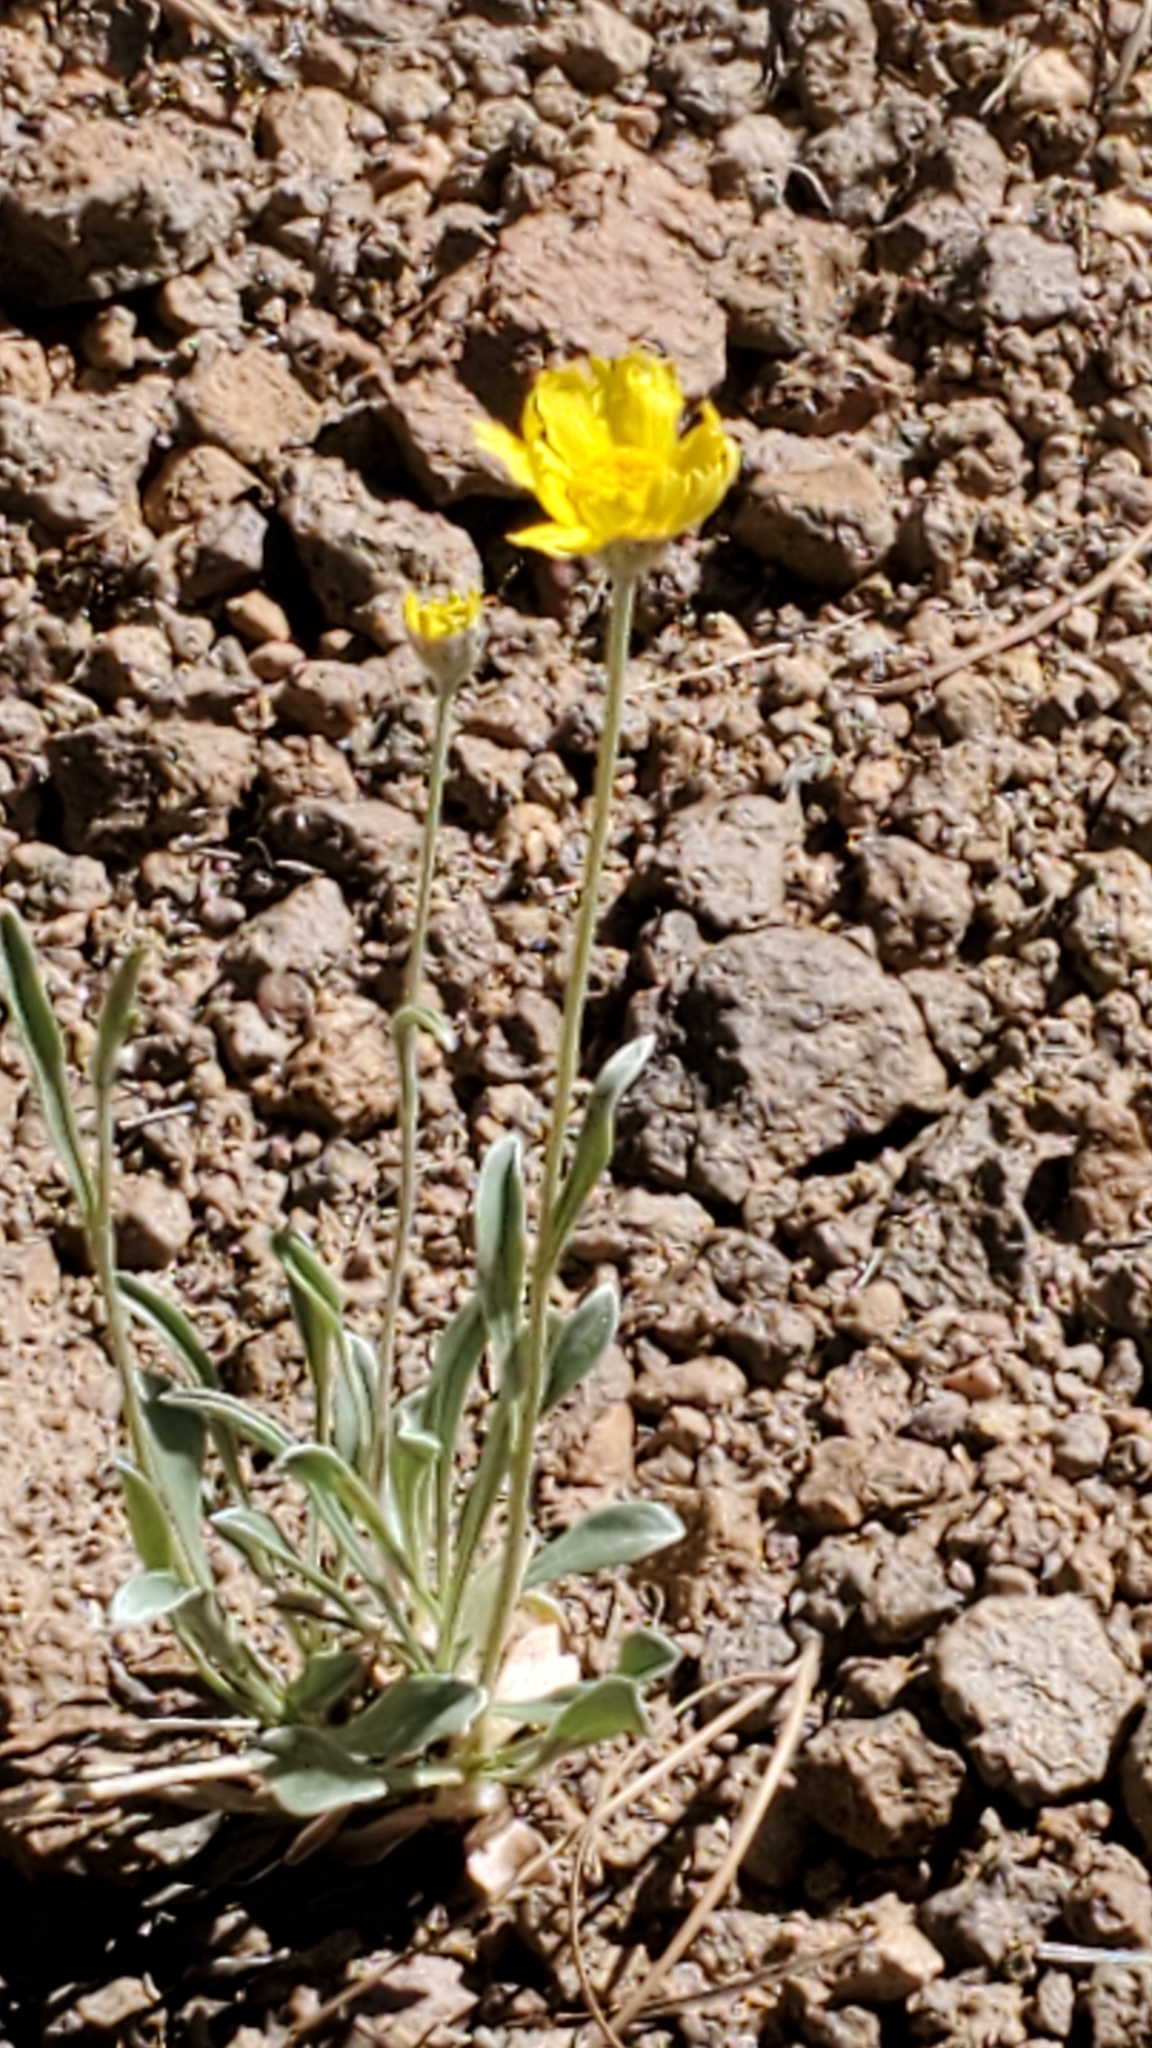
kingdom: Plantae
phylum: Tracheophyta
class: Magnoliopsida
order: Asterales
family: Asteraceae
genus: Tetraneuris
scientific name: Tetraneuris argentea
